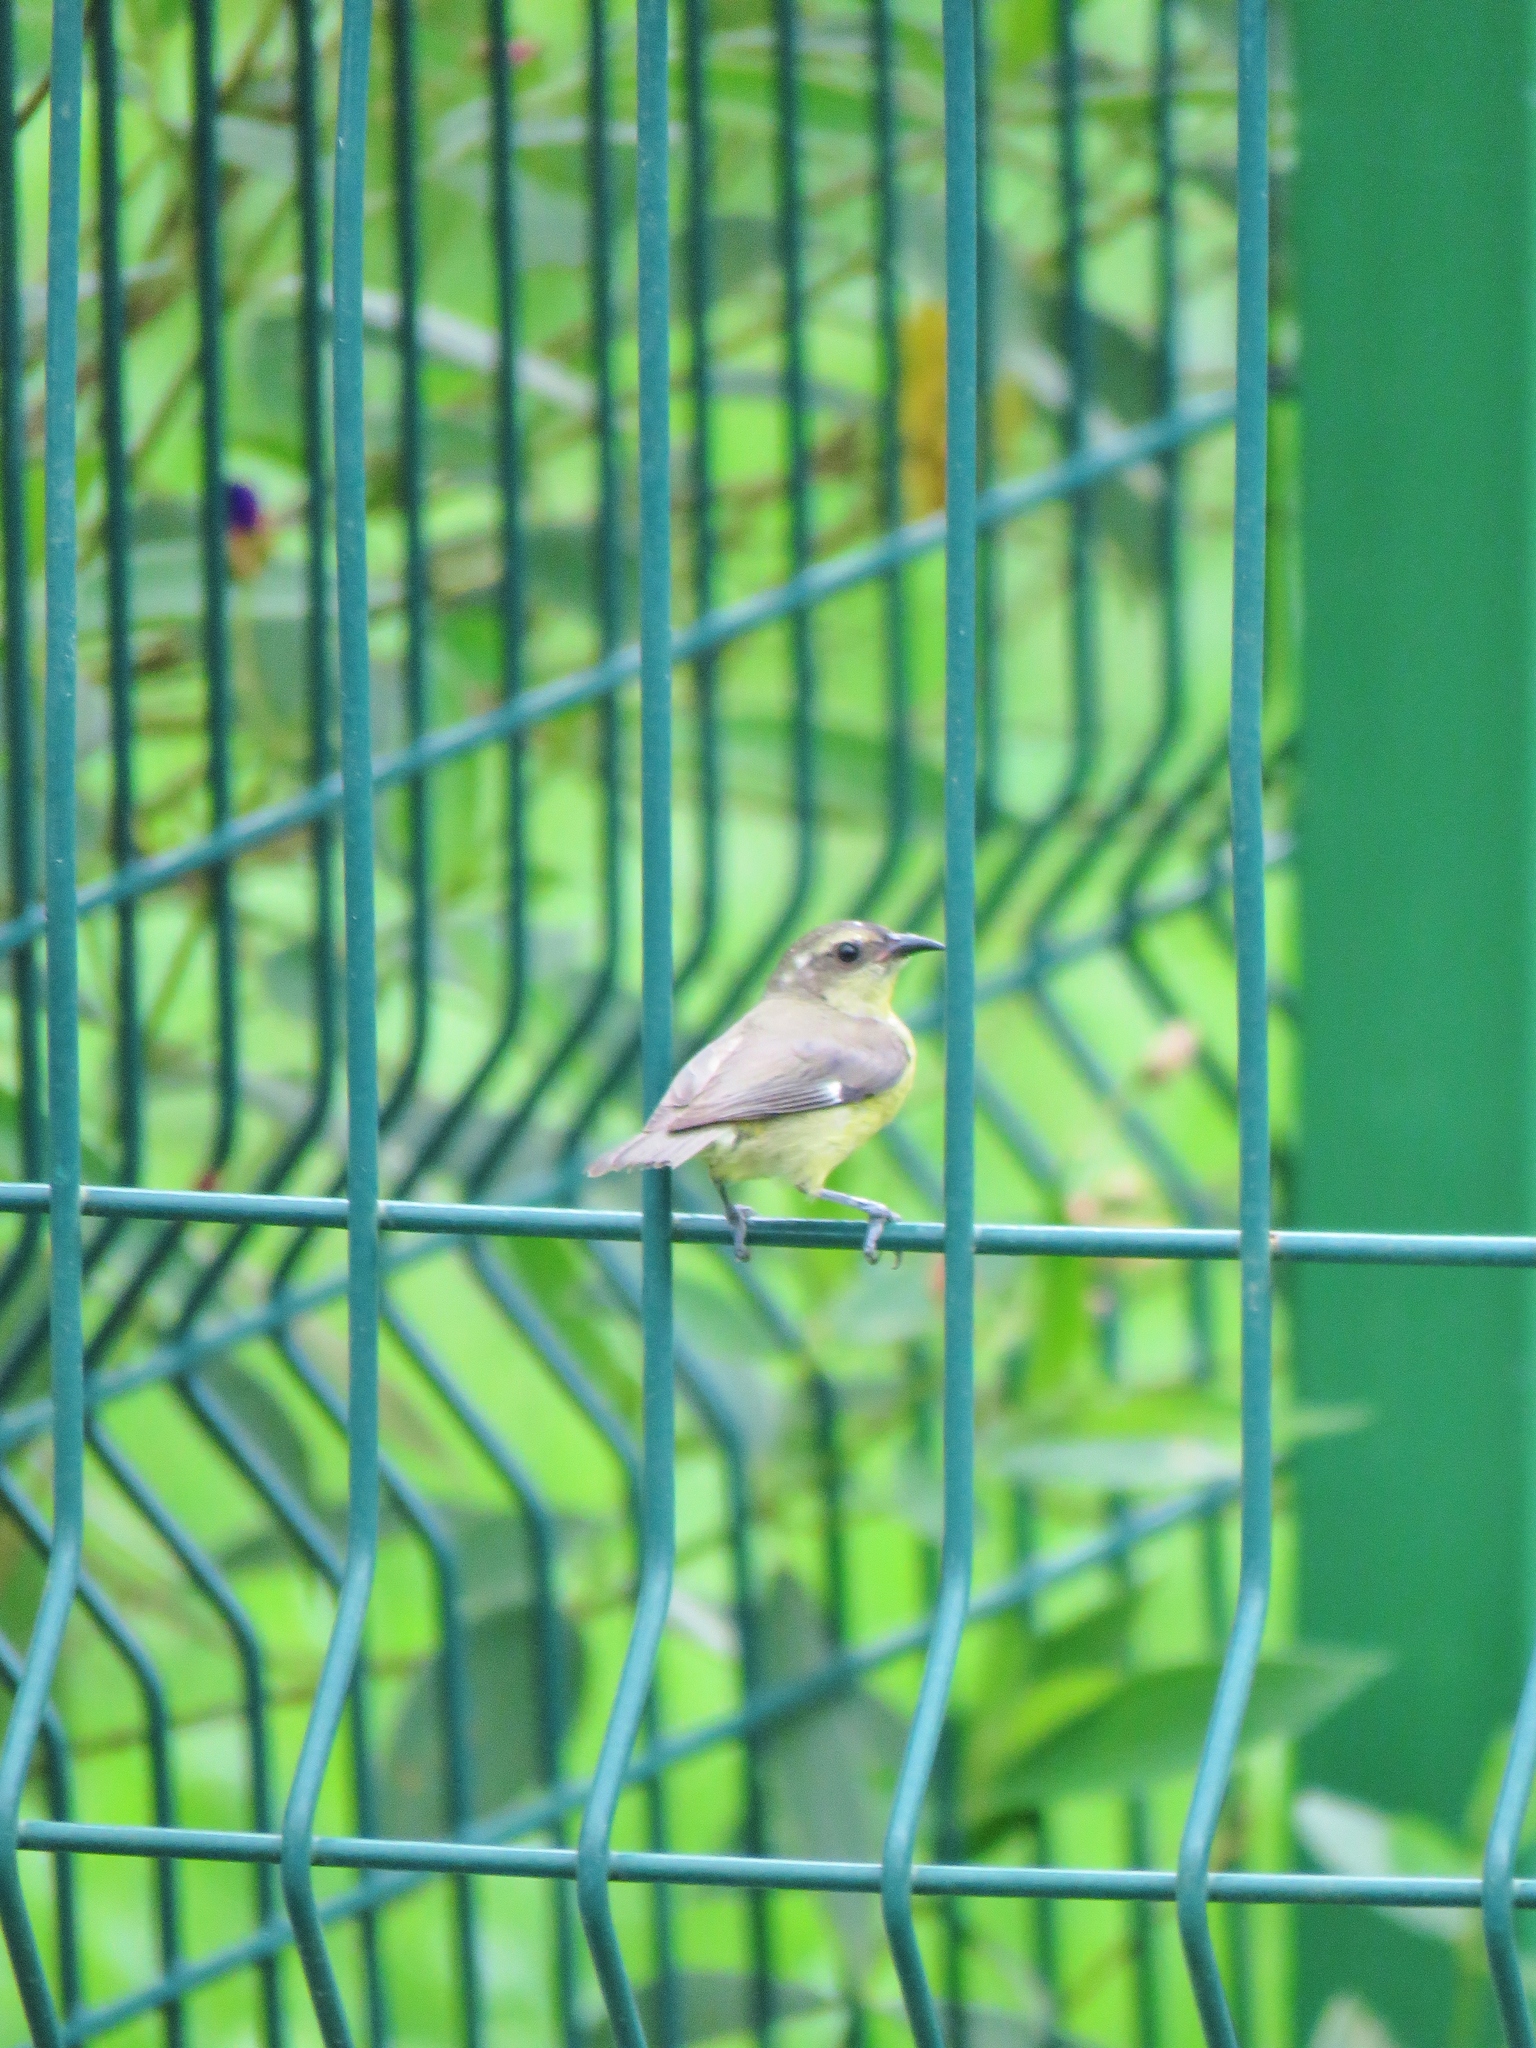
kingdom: Animalia
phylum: Chordata
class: Aves
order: Passeriformes
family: Thraupidae
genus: Coereba
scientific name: Coereba flaveola
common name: Bananaquit
